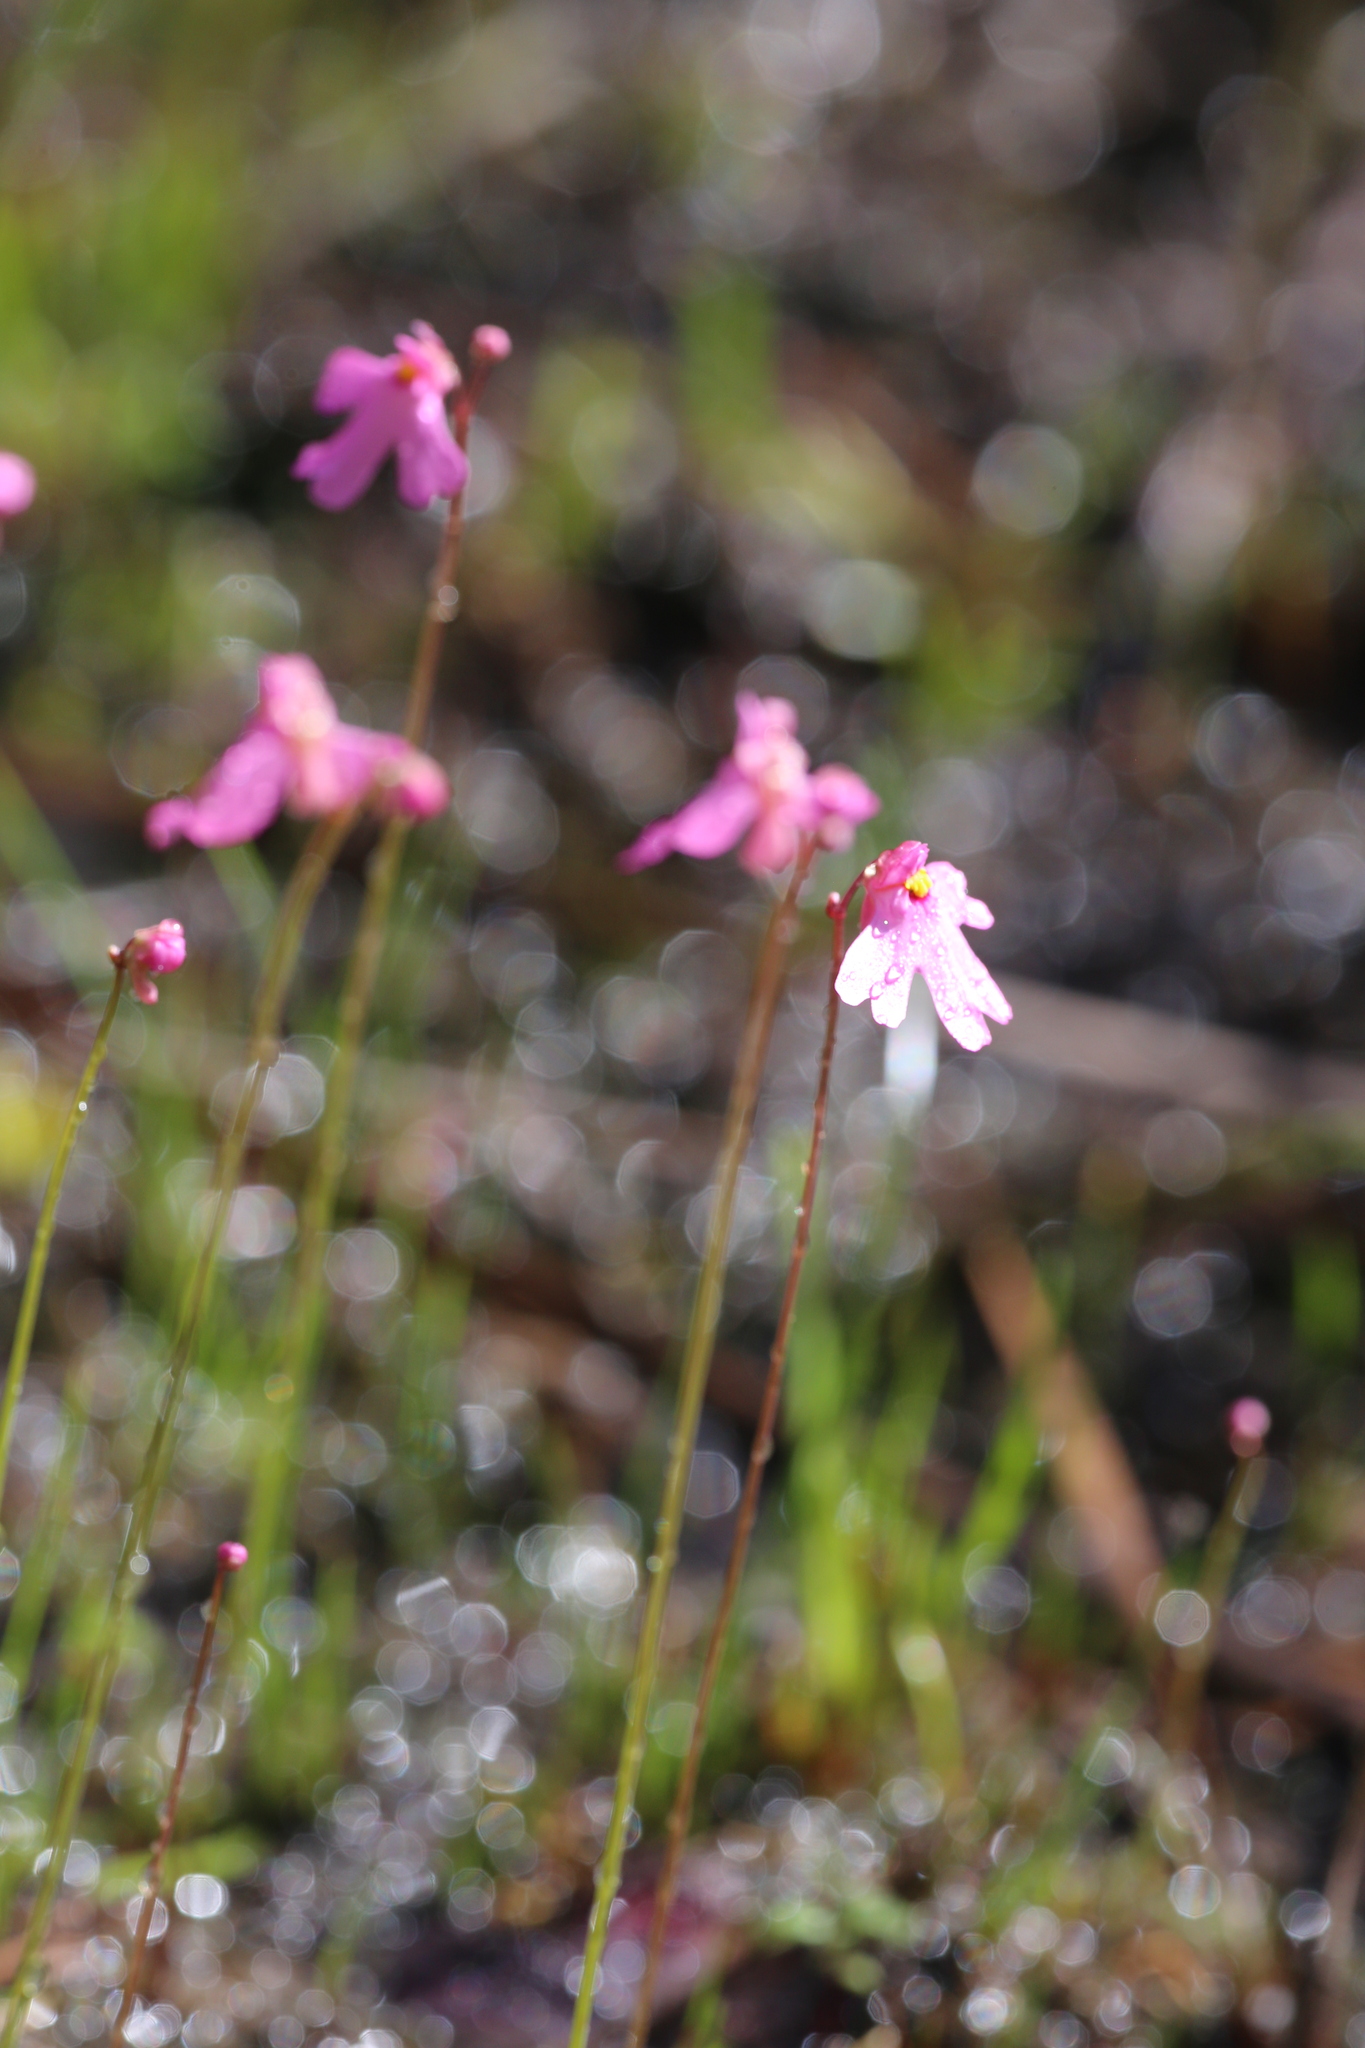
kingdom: Plantae
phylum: Tracheophyta
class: Magnoliopsida
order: Lamiales
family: Lentibulariaceae
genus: Utricularia
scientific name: Utricularia multifida
